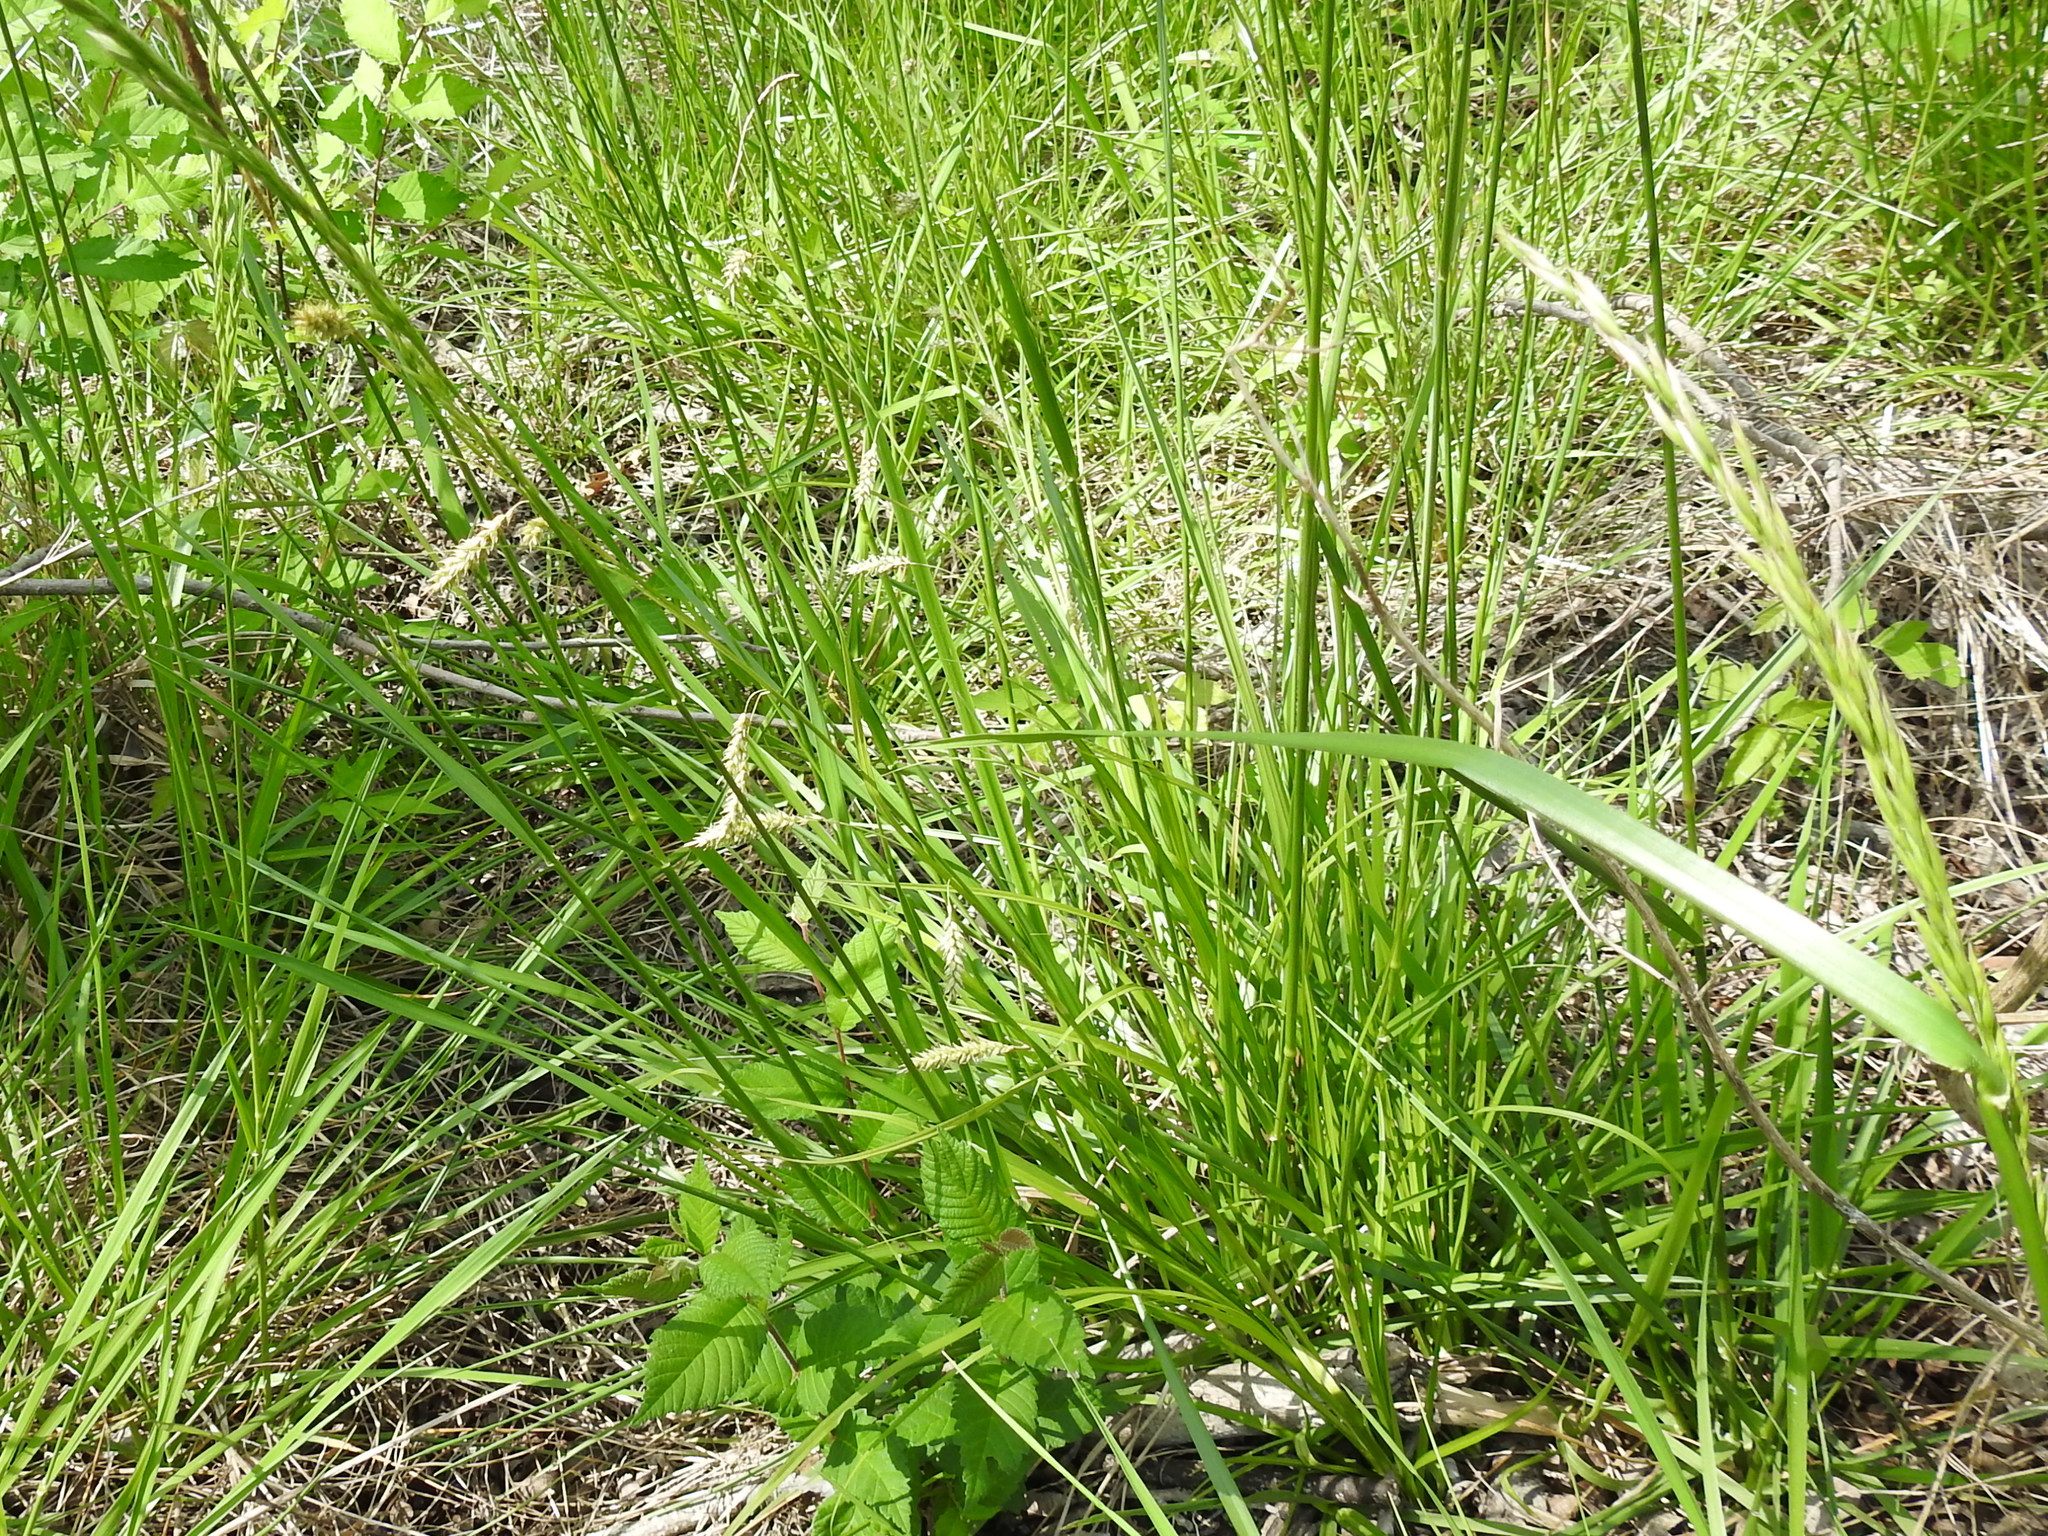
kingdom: Plantae
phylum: Tracheophyta
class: Liliopsida
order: Poales
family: Cyperaceae
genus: Carex
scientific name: Carex cherokeensis
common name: Cherokee sedge
